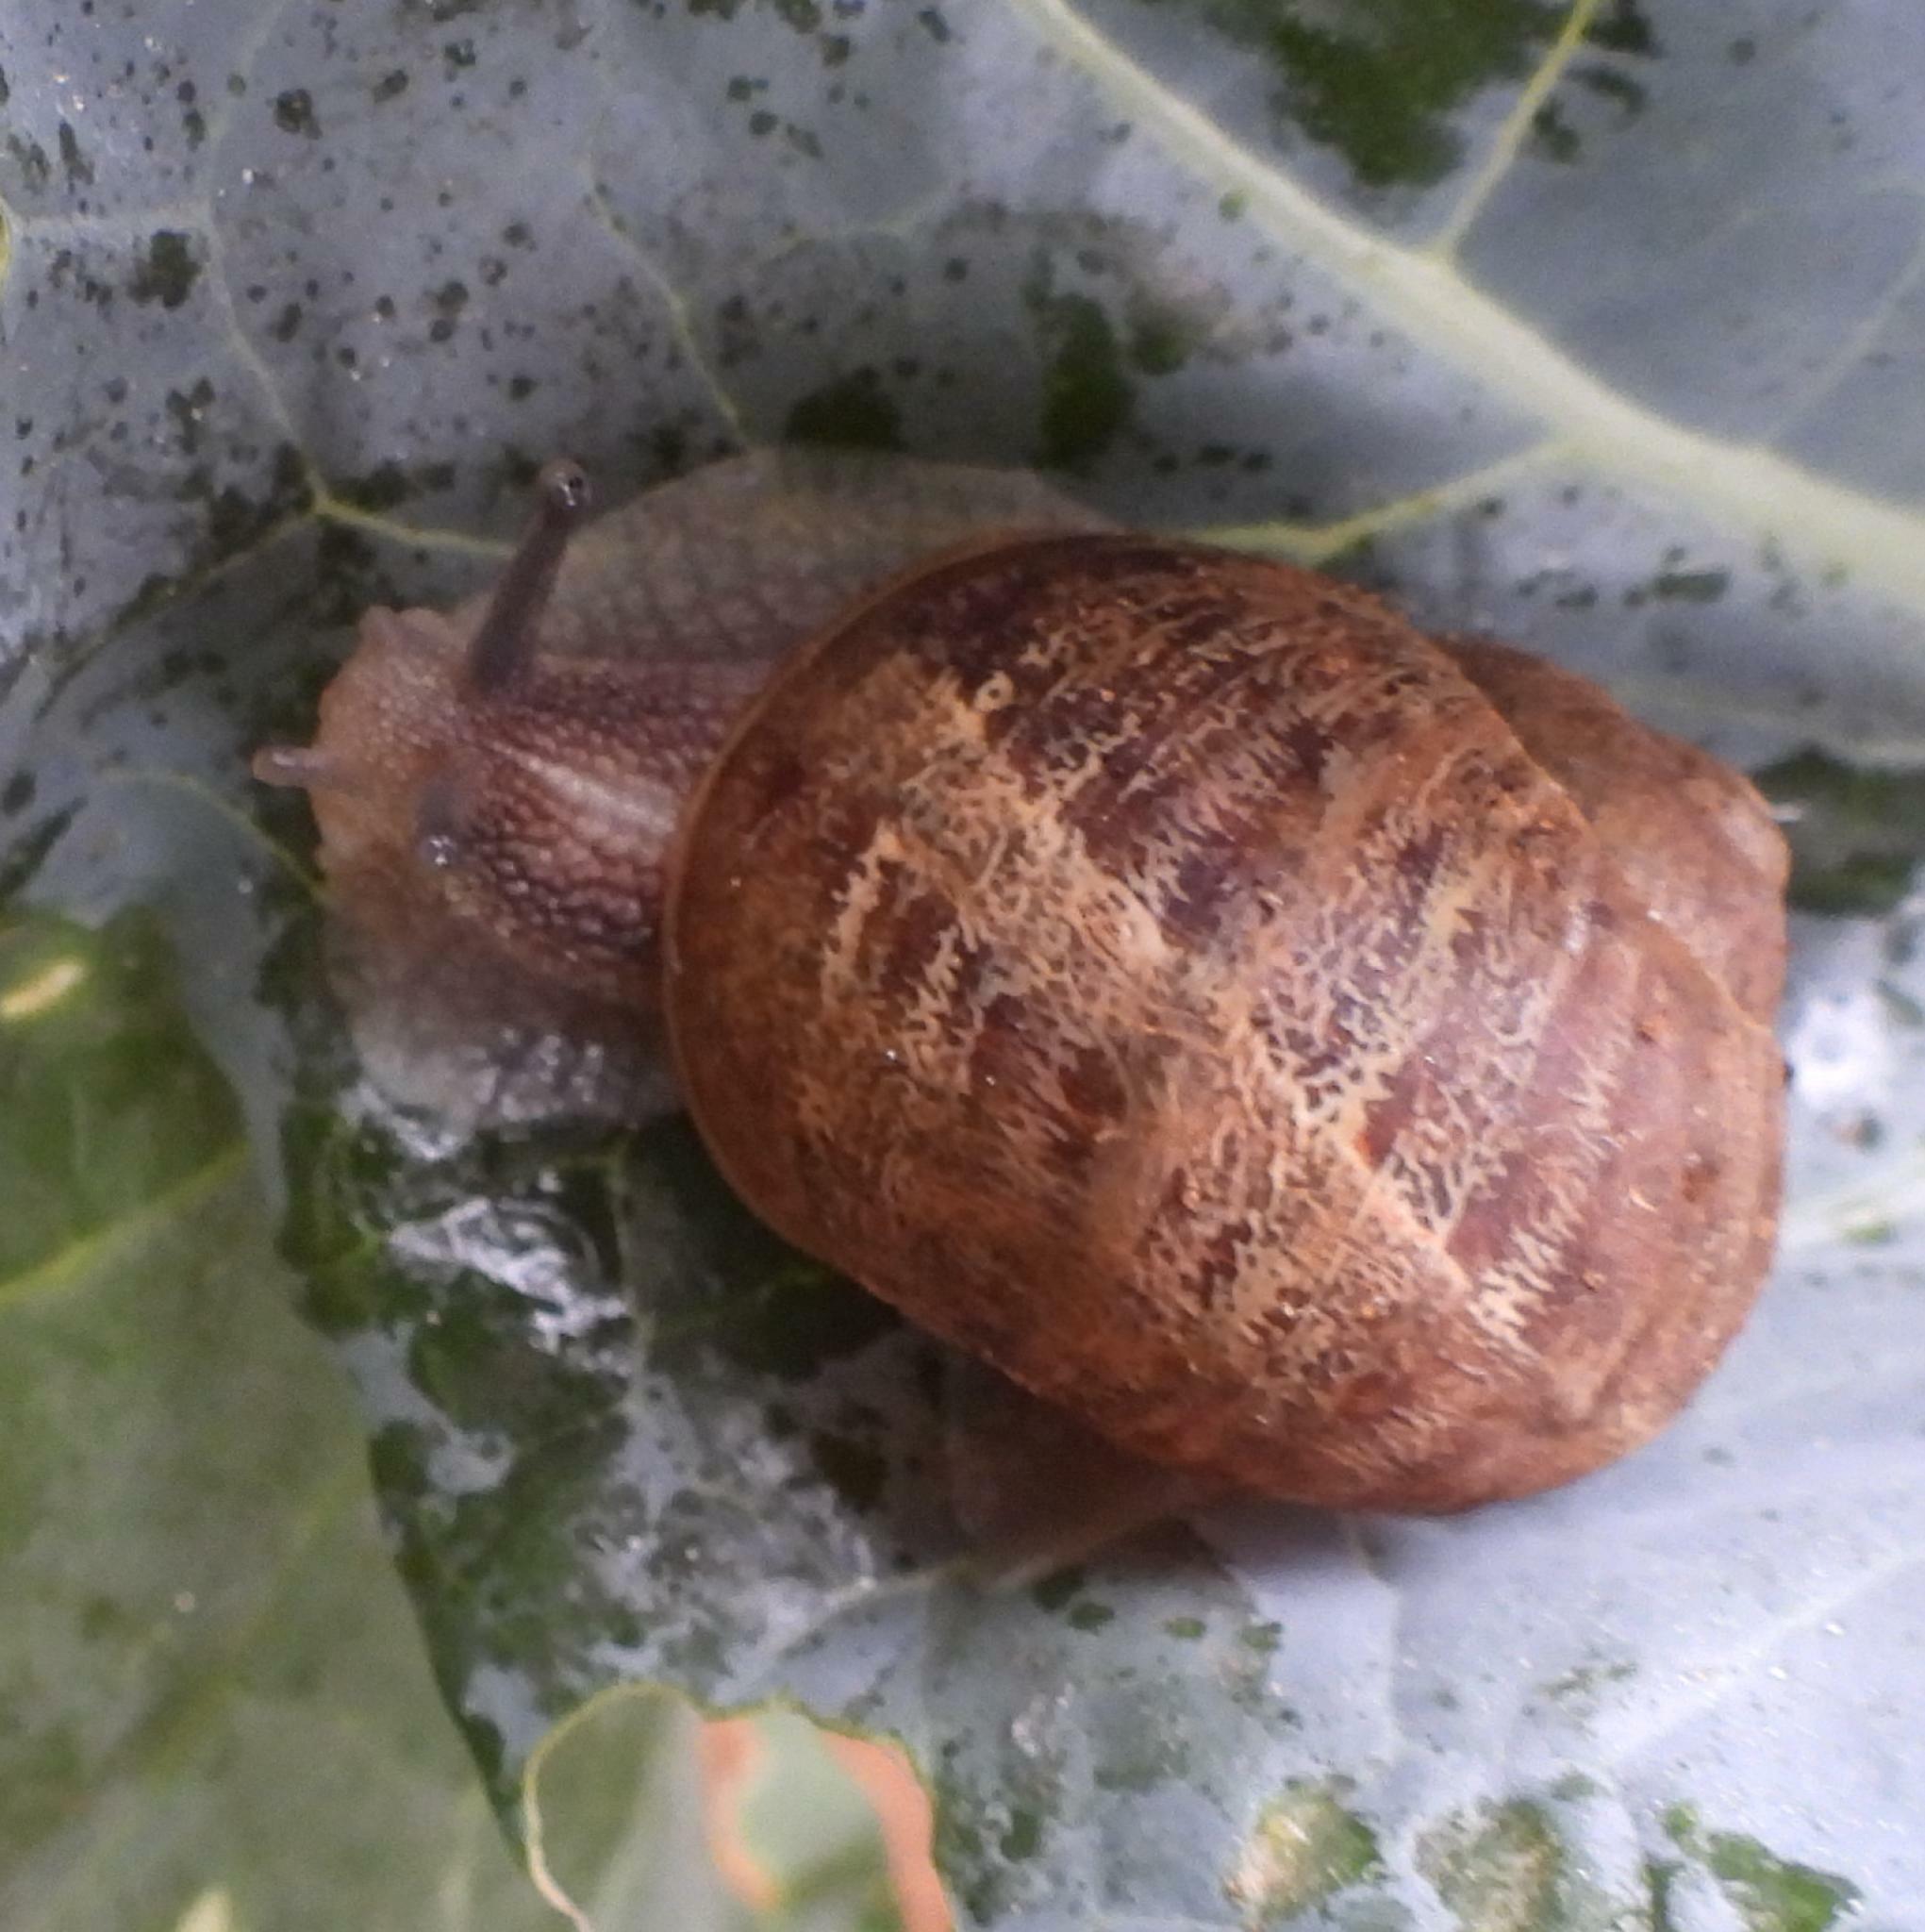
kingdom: Animalia
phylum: Mollusca
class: Gastropoda
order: Stylommatophora
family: Helicidae
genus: Cornu
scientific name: Cornu aspersum
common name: Brown garden snail
